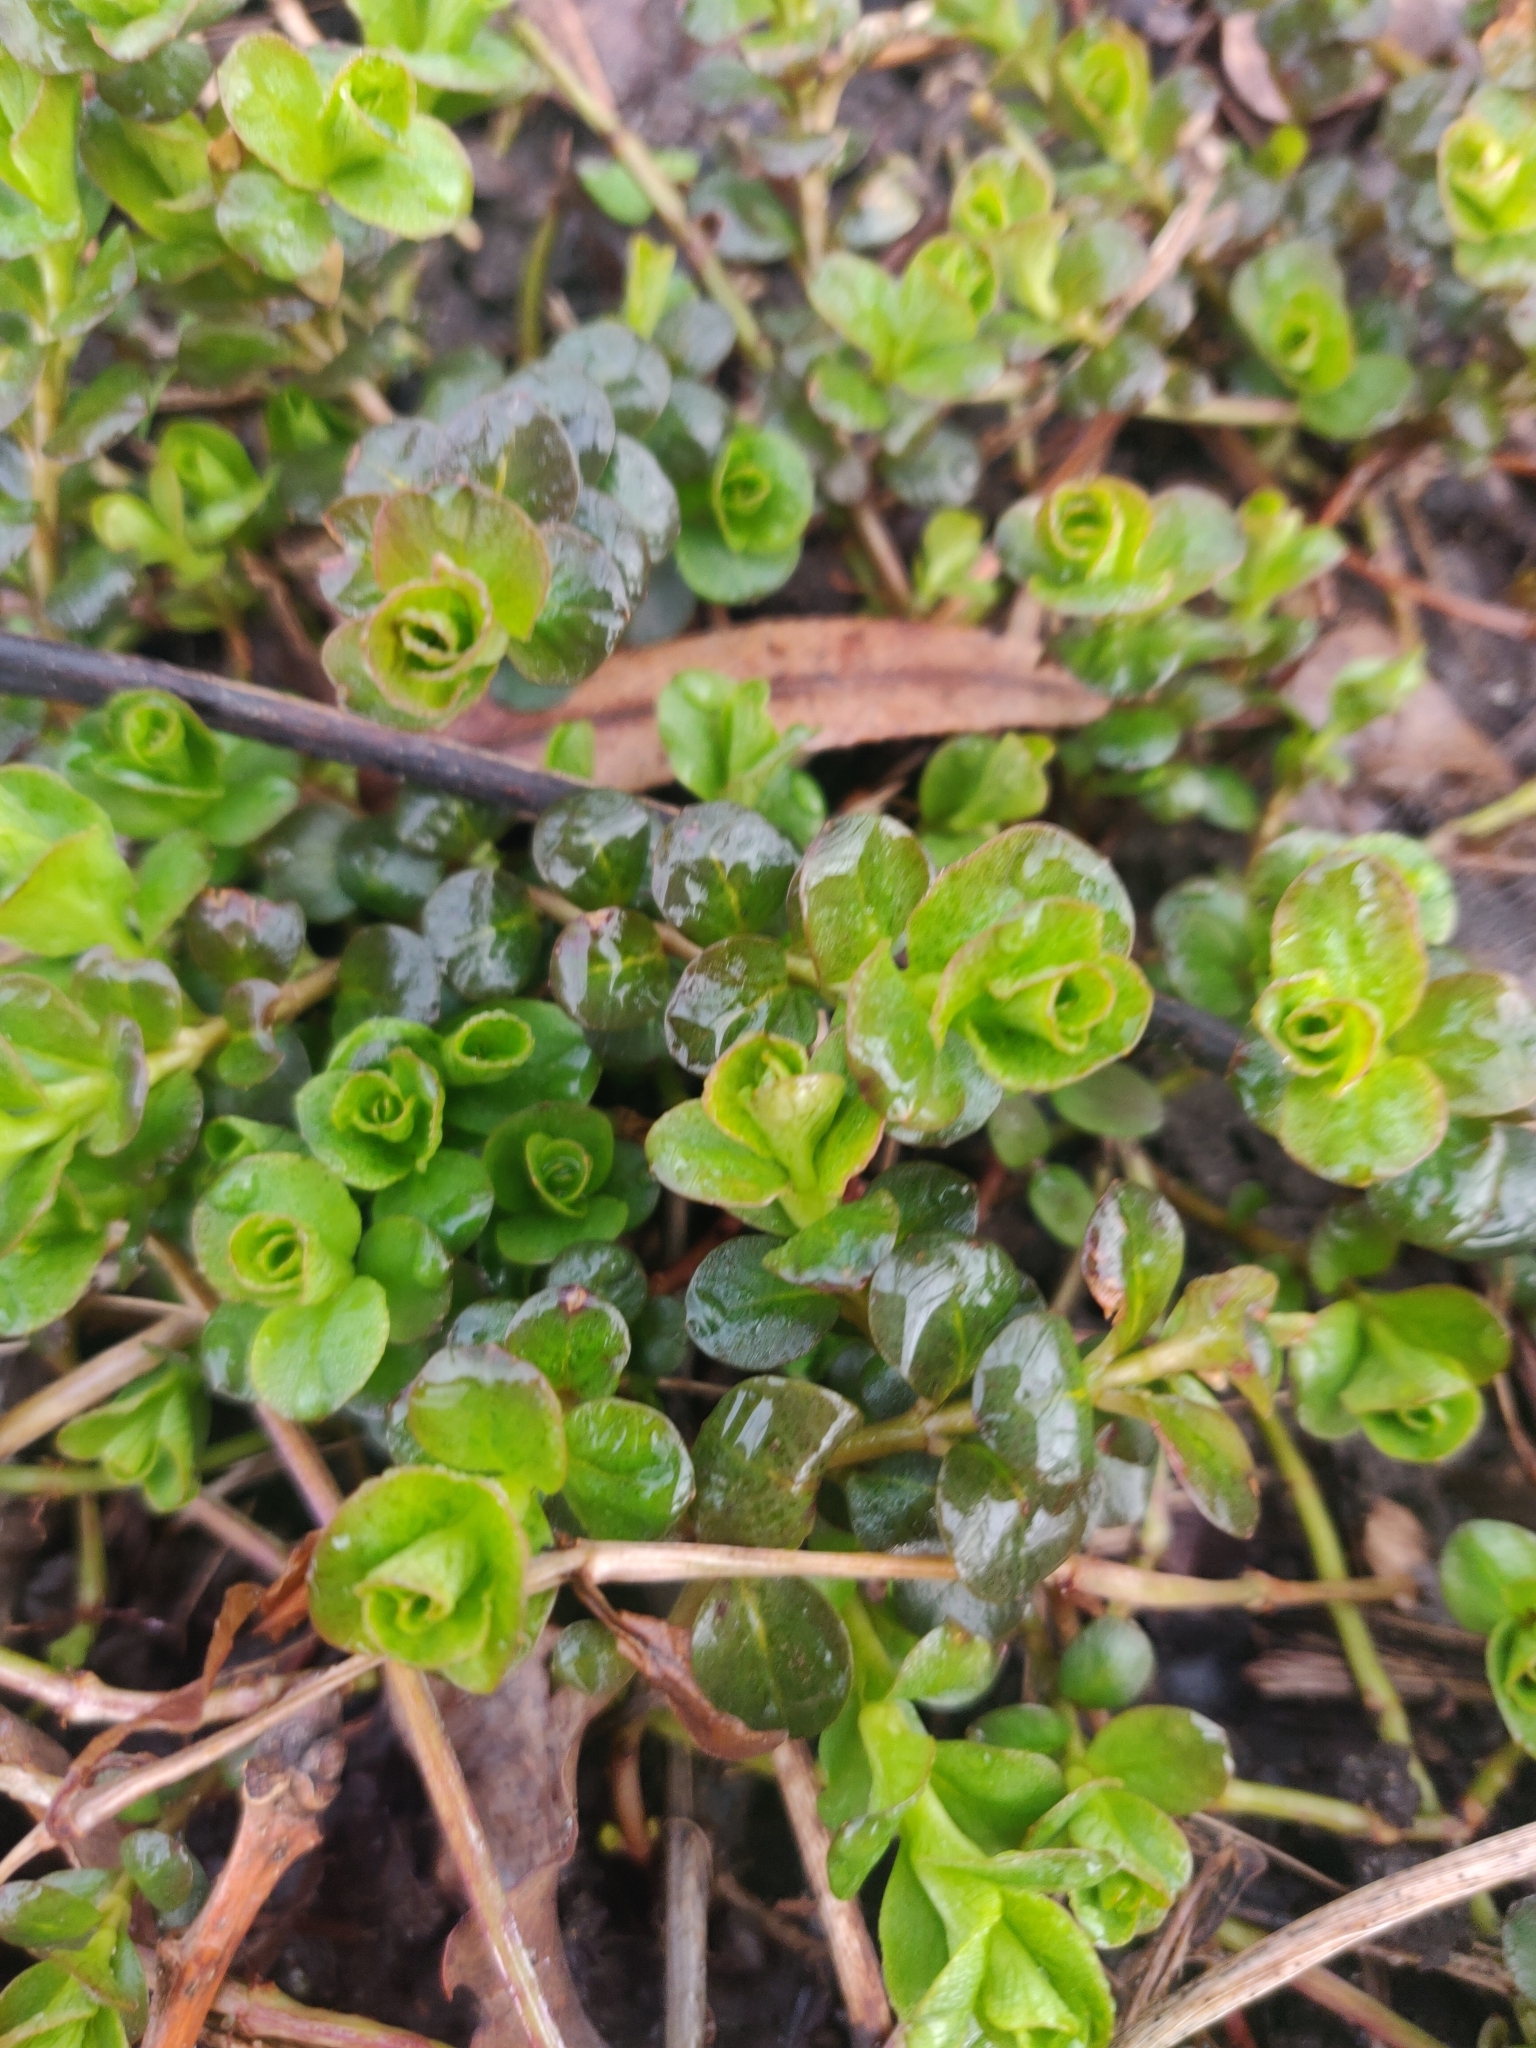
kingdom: Plantae
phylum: Tracheophyta
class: Magnoliopsida
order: Ericales
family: Primulaceae
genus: Lysimachia
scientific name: Lysimachia nummularia
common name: Moneywort
